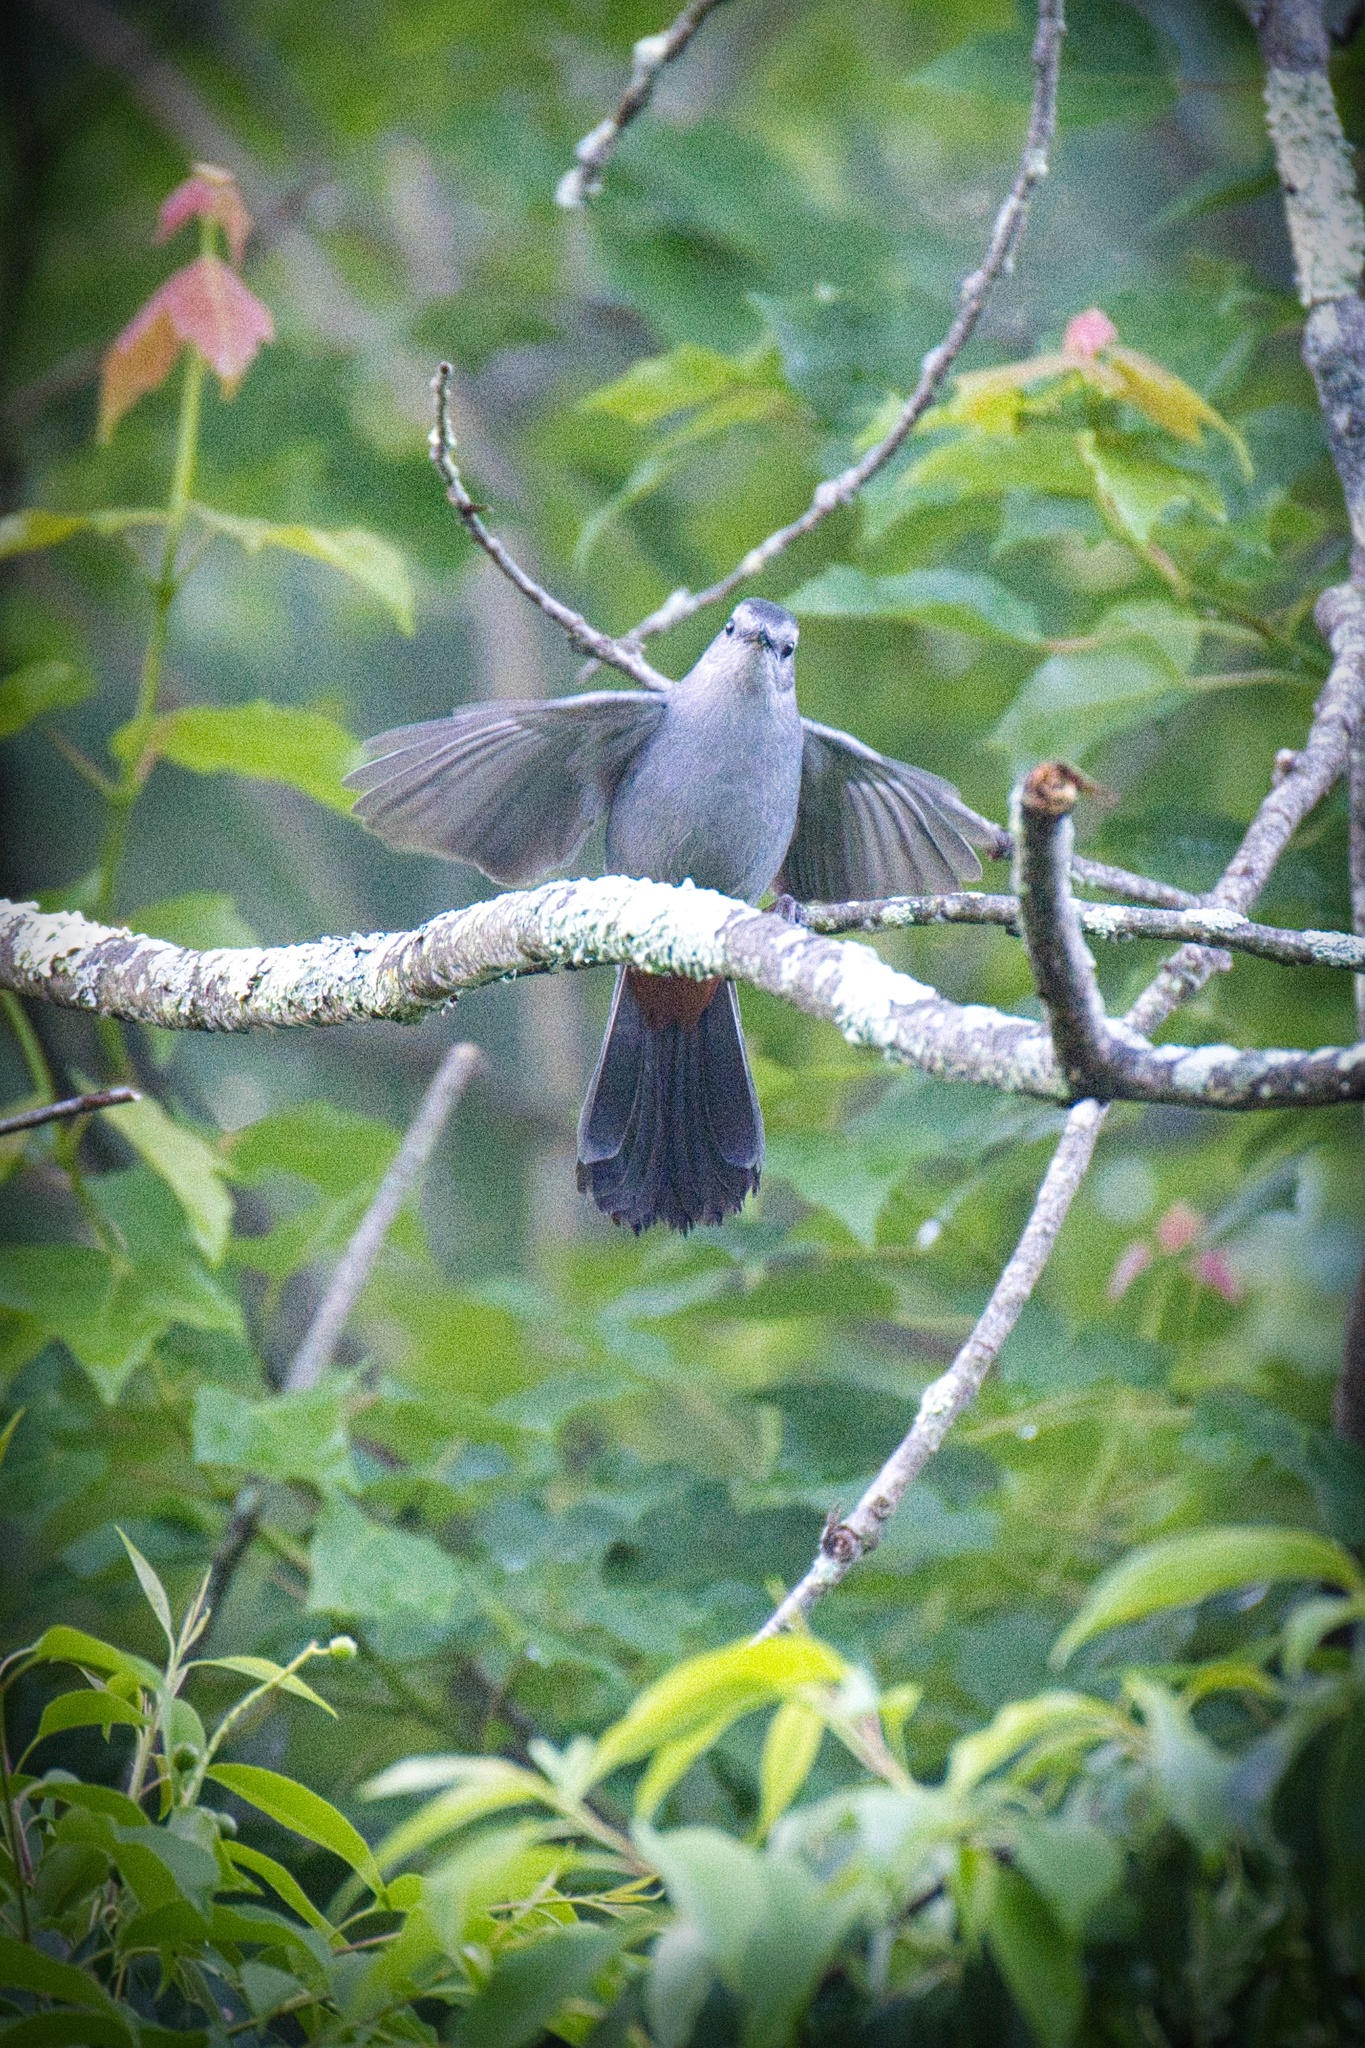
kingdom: Animalia
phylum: Chordata
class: Aves
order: Passeriformes
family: Mimidae
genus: Dumetella
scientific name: Dumetella carolinensis
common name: Gray catbird
